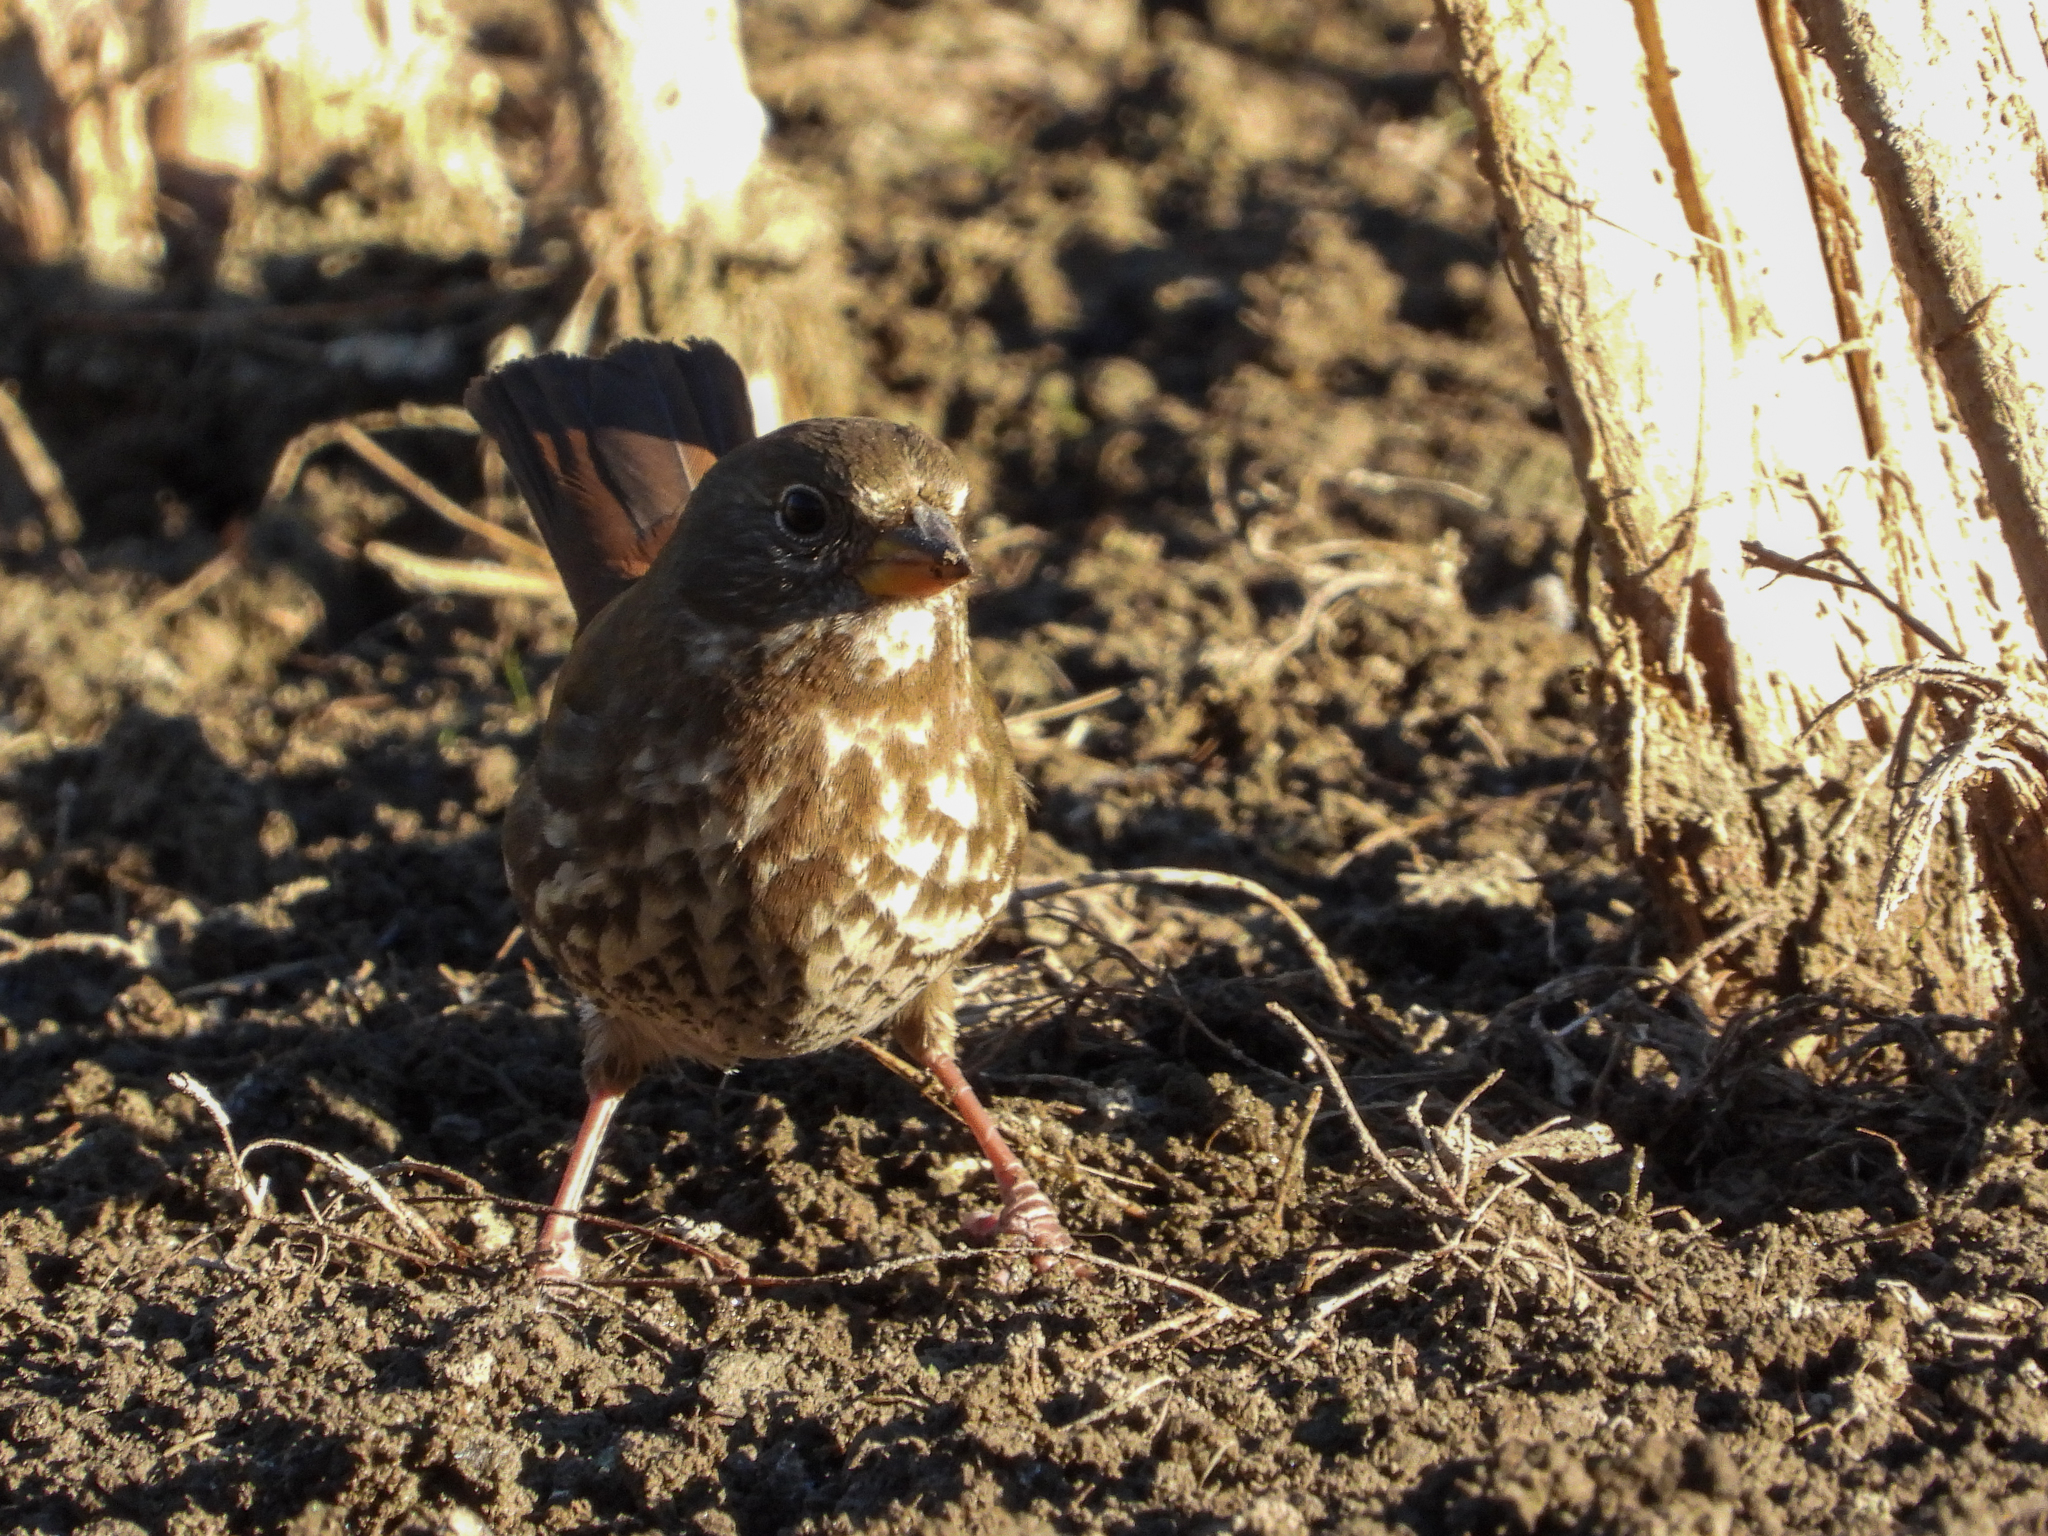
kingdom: Animalia
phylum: Chordata
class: Aves
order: Passeriformes
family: Passerellidae
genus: Passerella
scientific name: Passerella iliaca
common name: Fox sparrow
